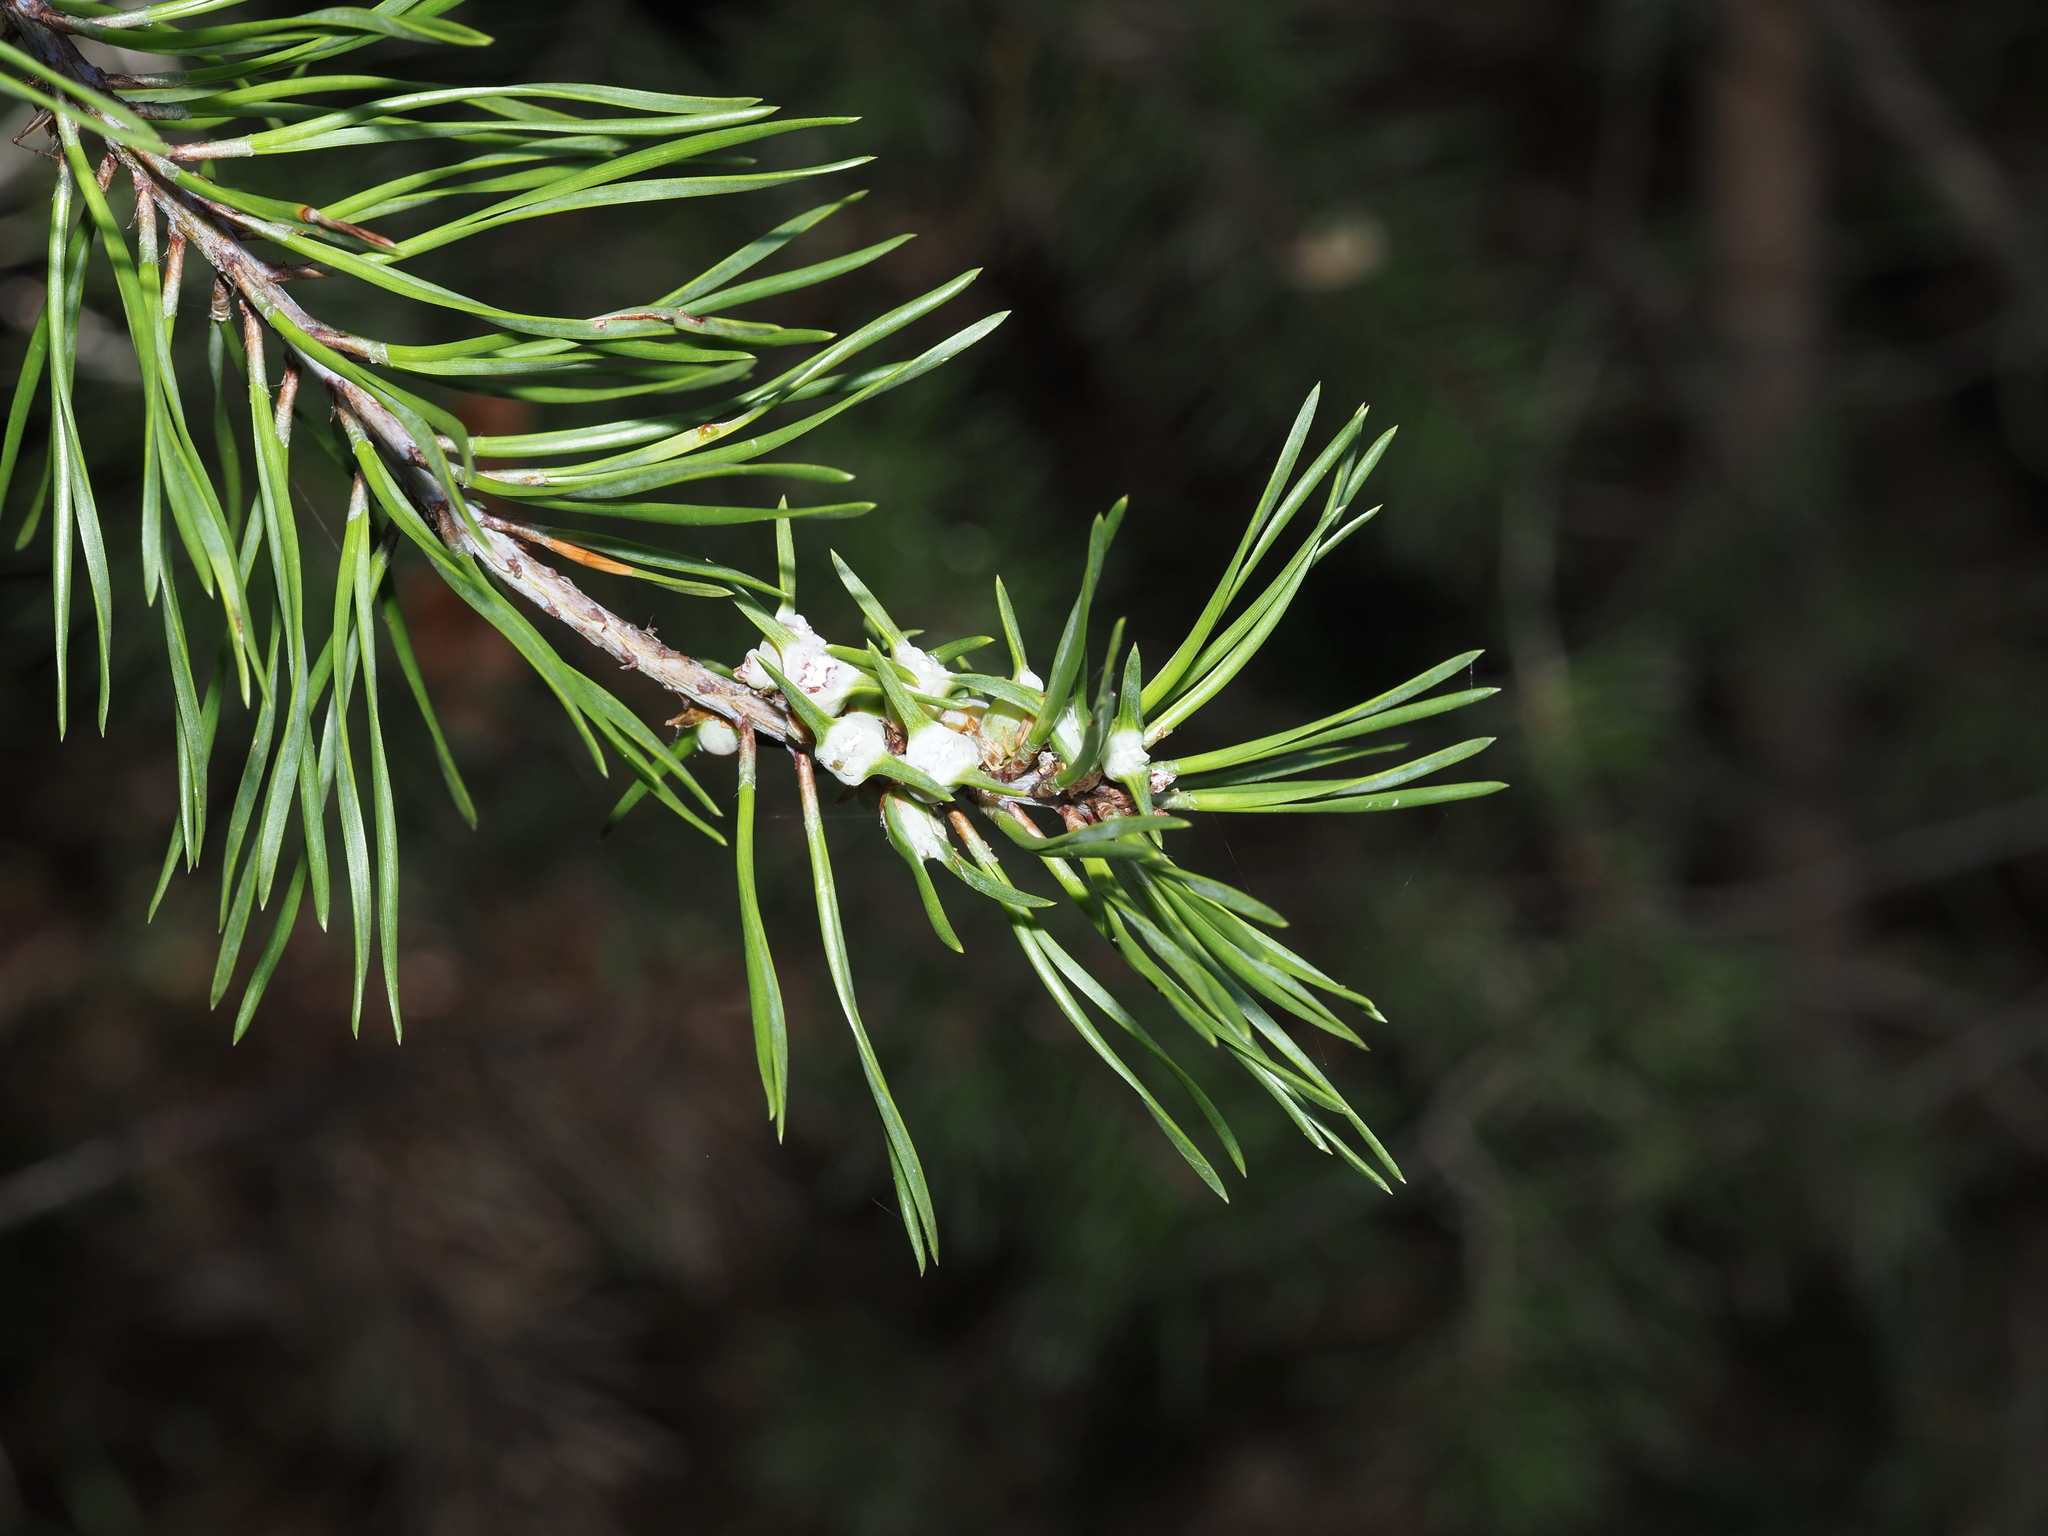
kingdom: Animalia
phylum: Arthropoda
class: Insecta
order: Diptera
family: Cecidomyiidae
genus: Thecodiplosis
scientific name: Thecodiplosis brachynteroides
